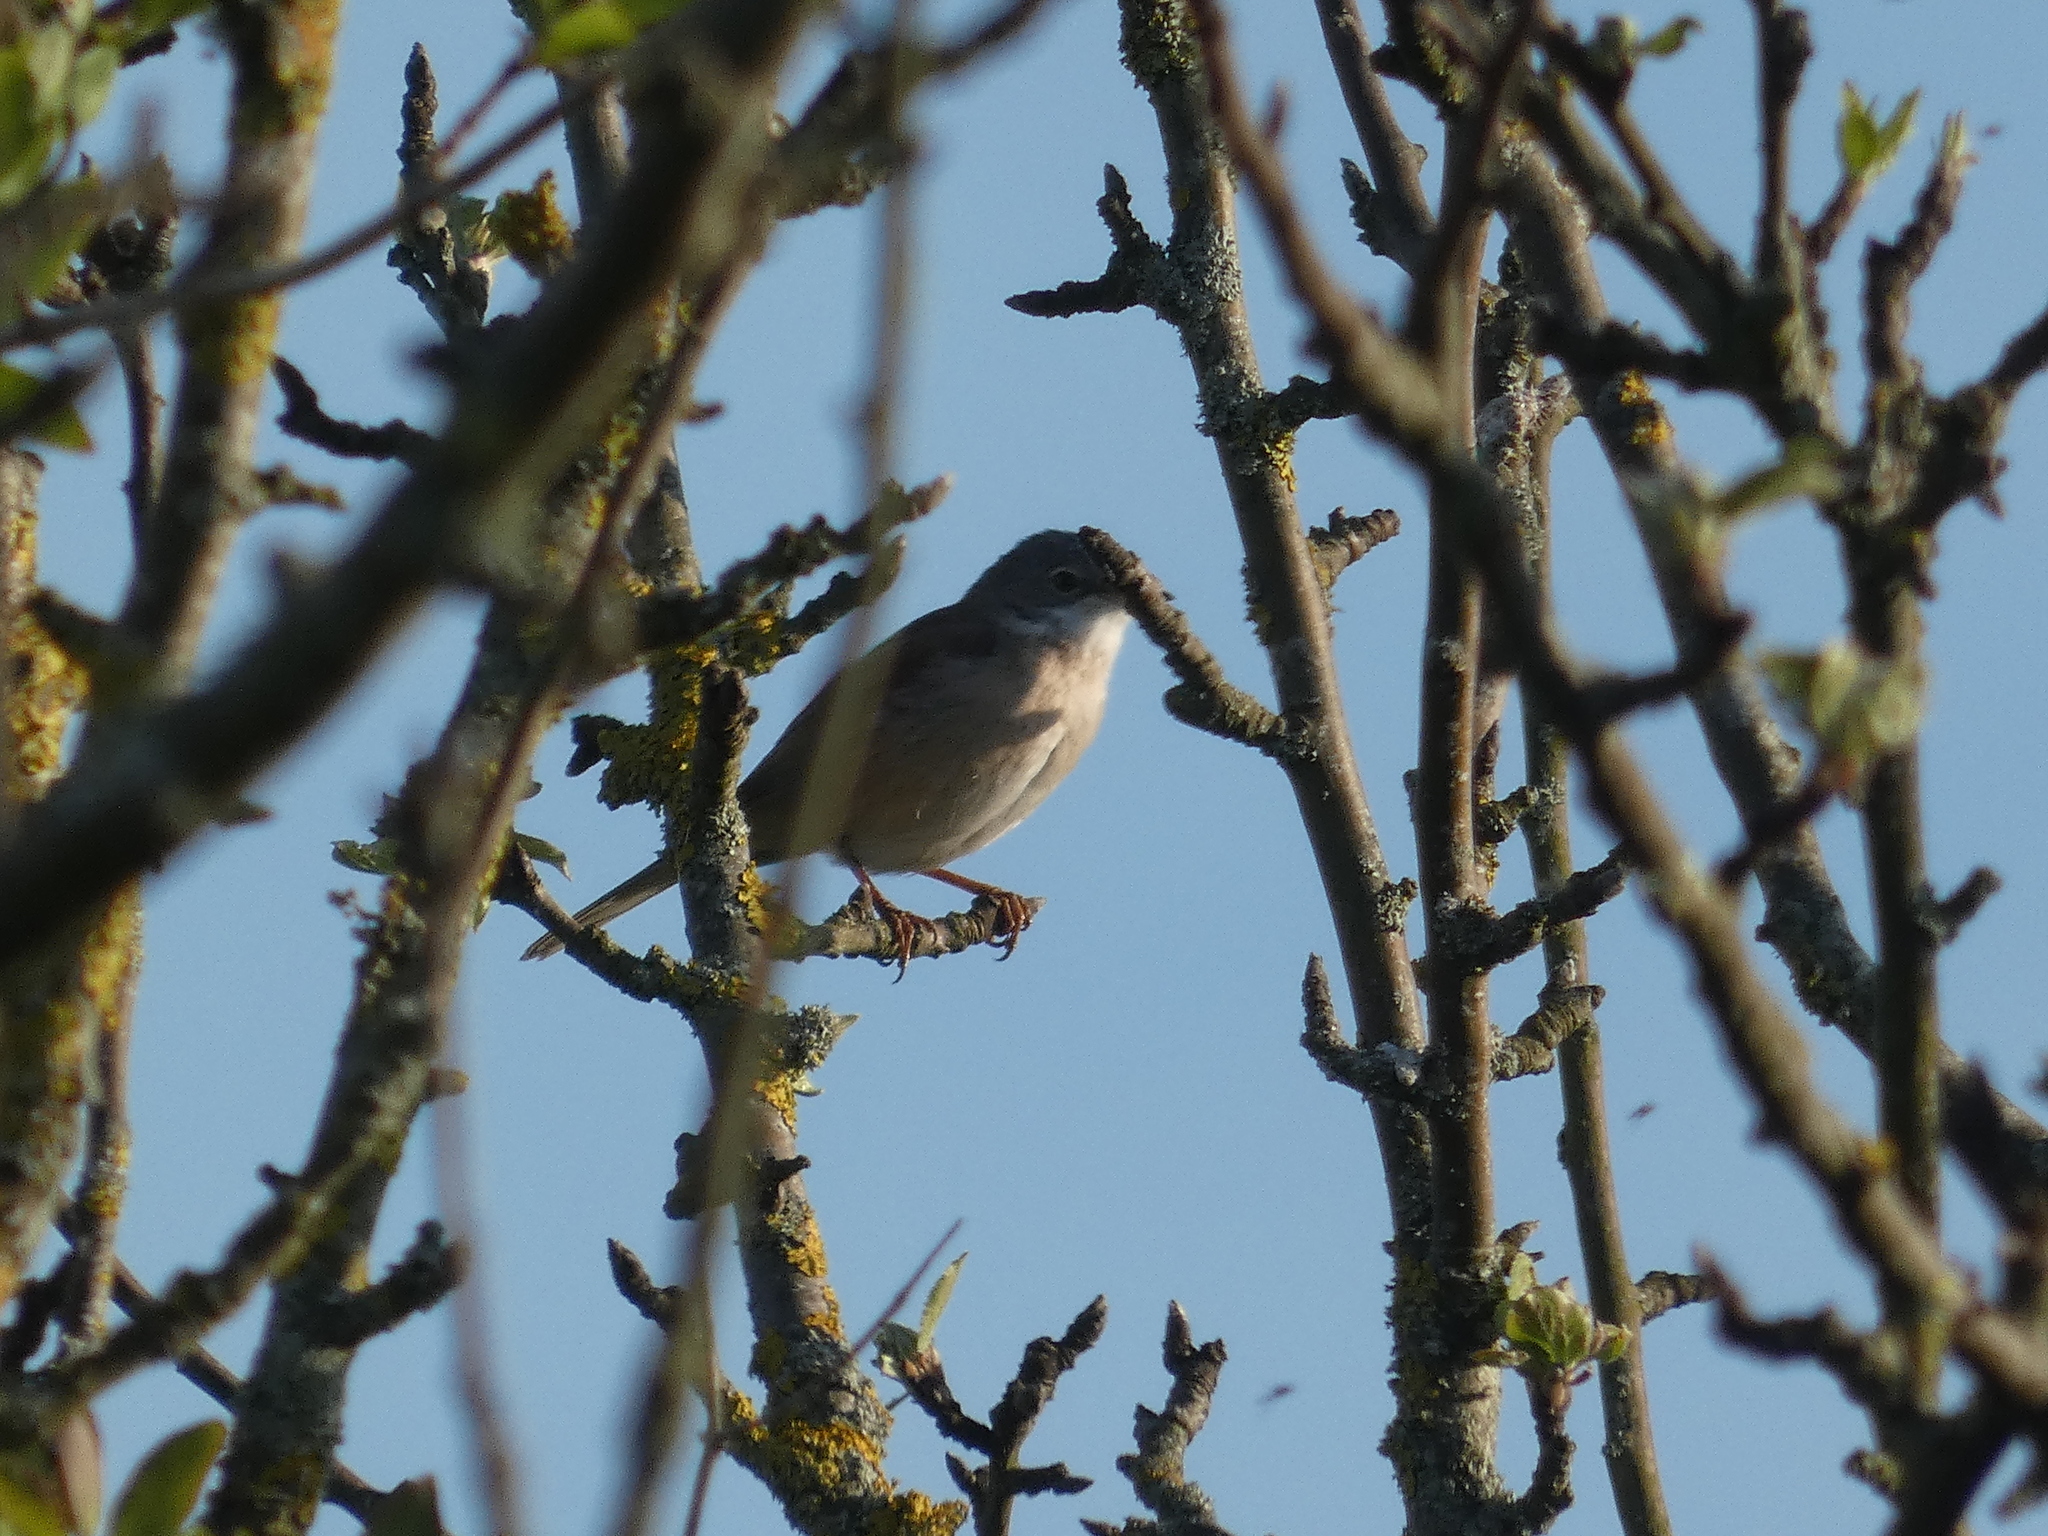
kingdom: Animalia
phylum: Chordata
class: Aves
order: Passeriformes
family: Sylviidae
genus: Sylvia
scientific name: Sylvia communis
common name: Common whitethroat
